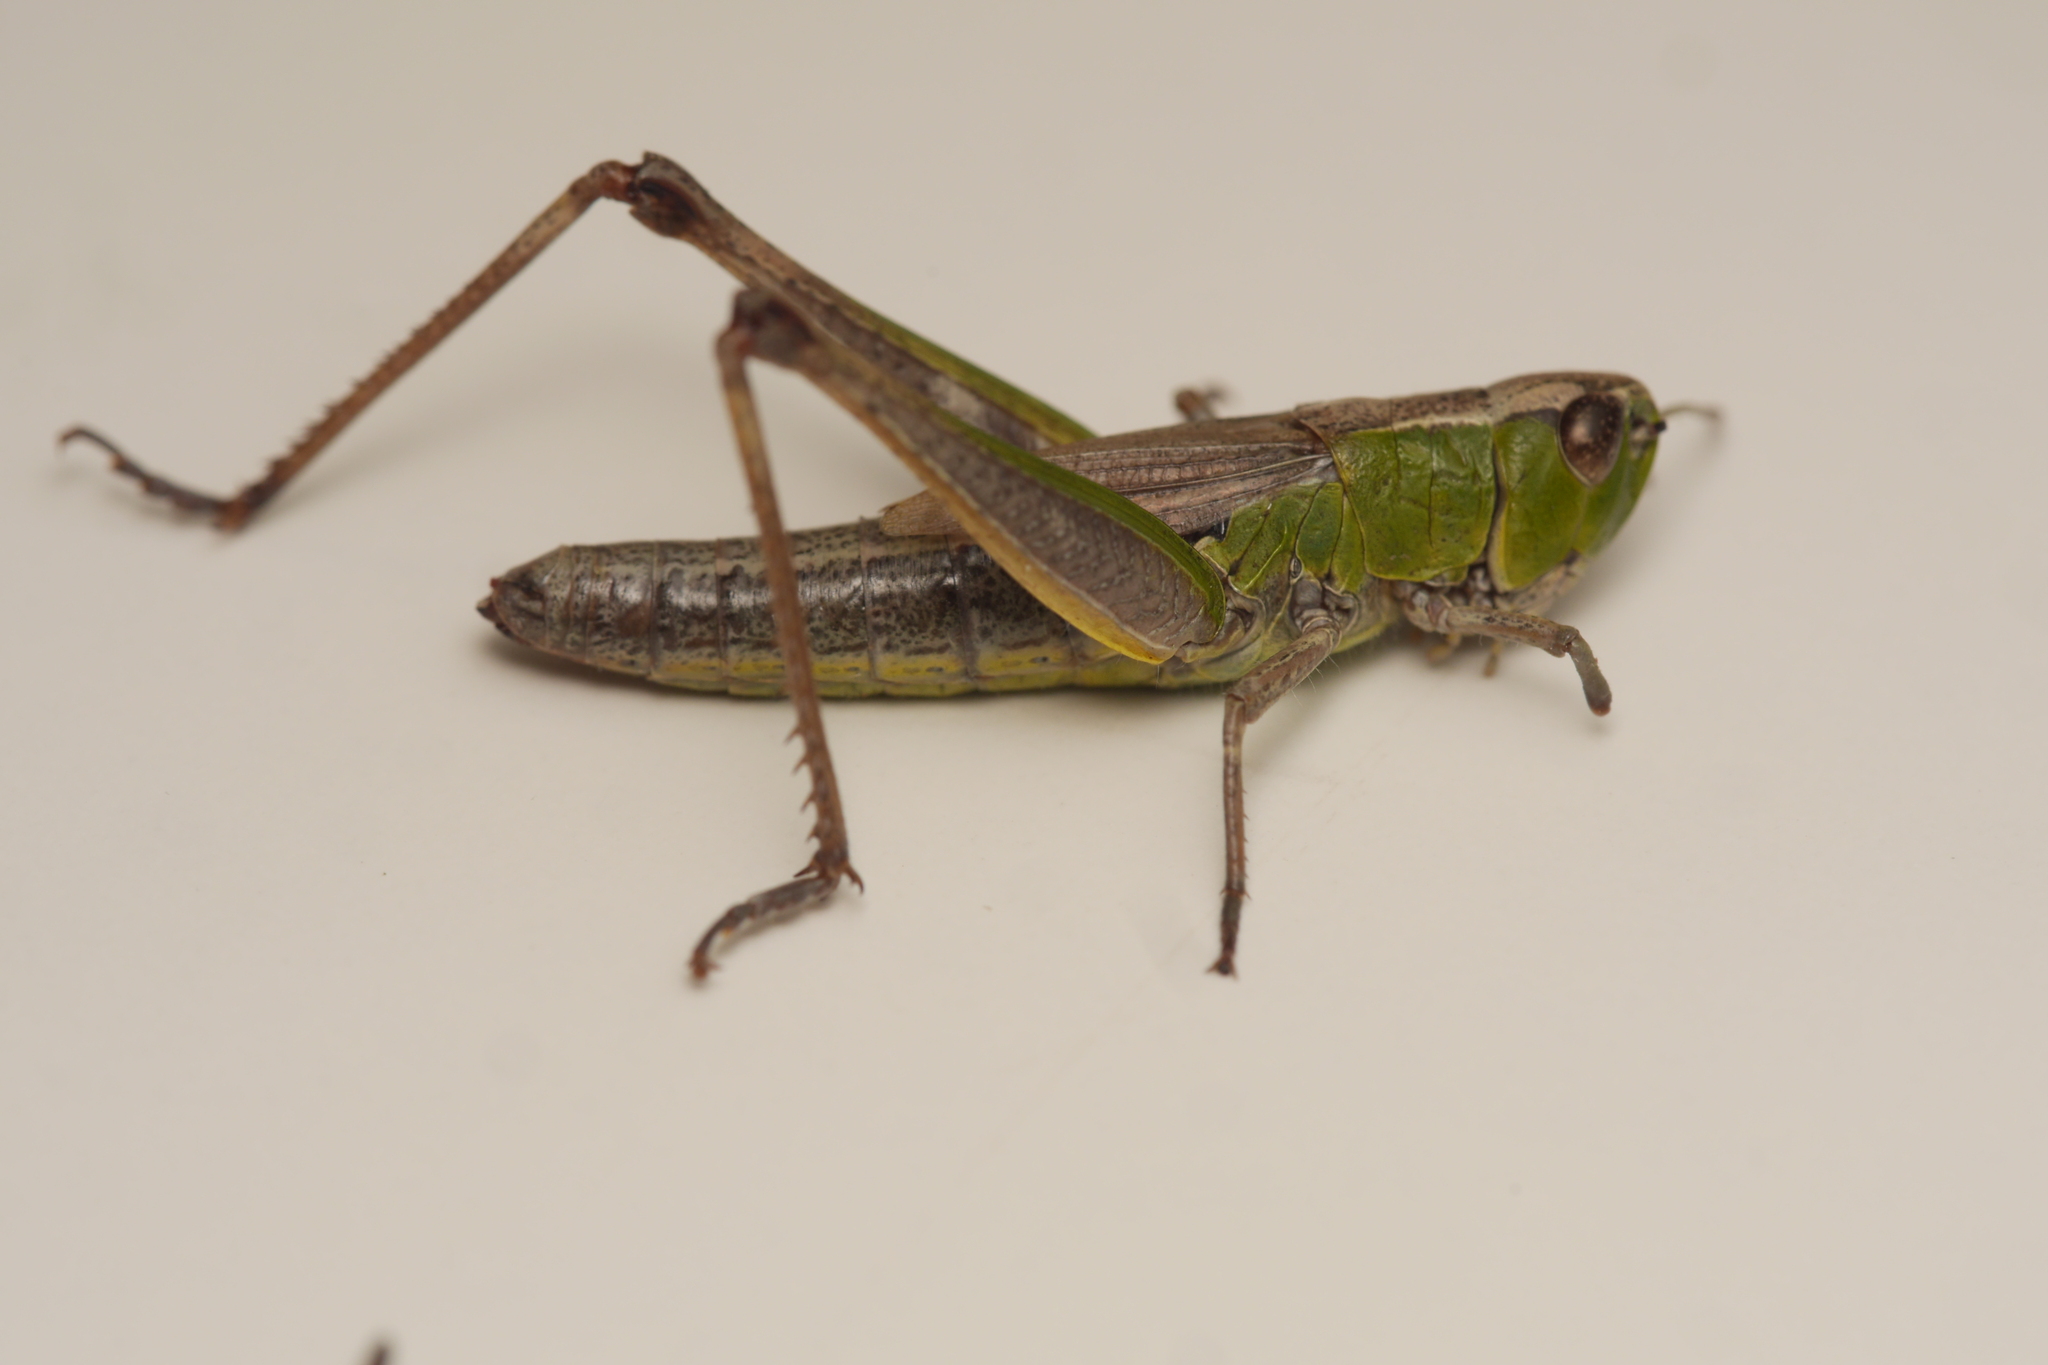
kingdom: Animalia
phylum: Arthropoda
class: Insecta
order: Orthoptera
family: Acrididae
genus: Pseudochorthippus
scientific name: Pseudochorthippus parallelus
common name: Meadow grasshopper
